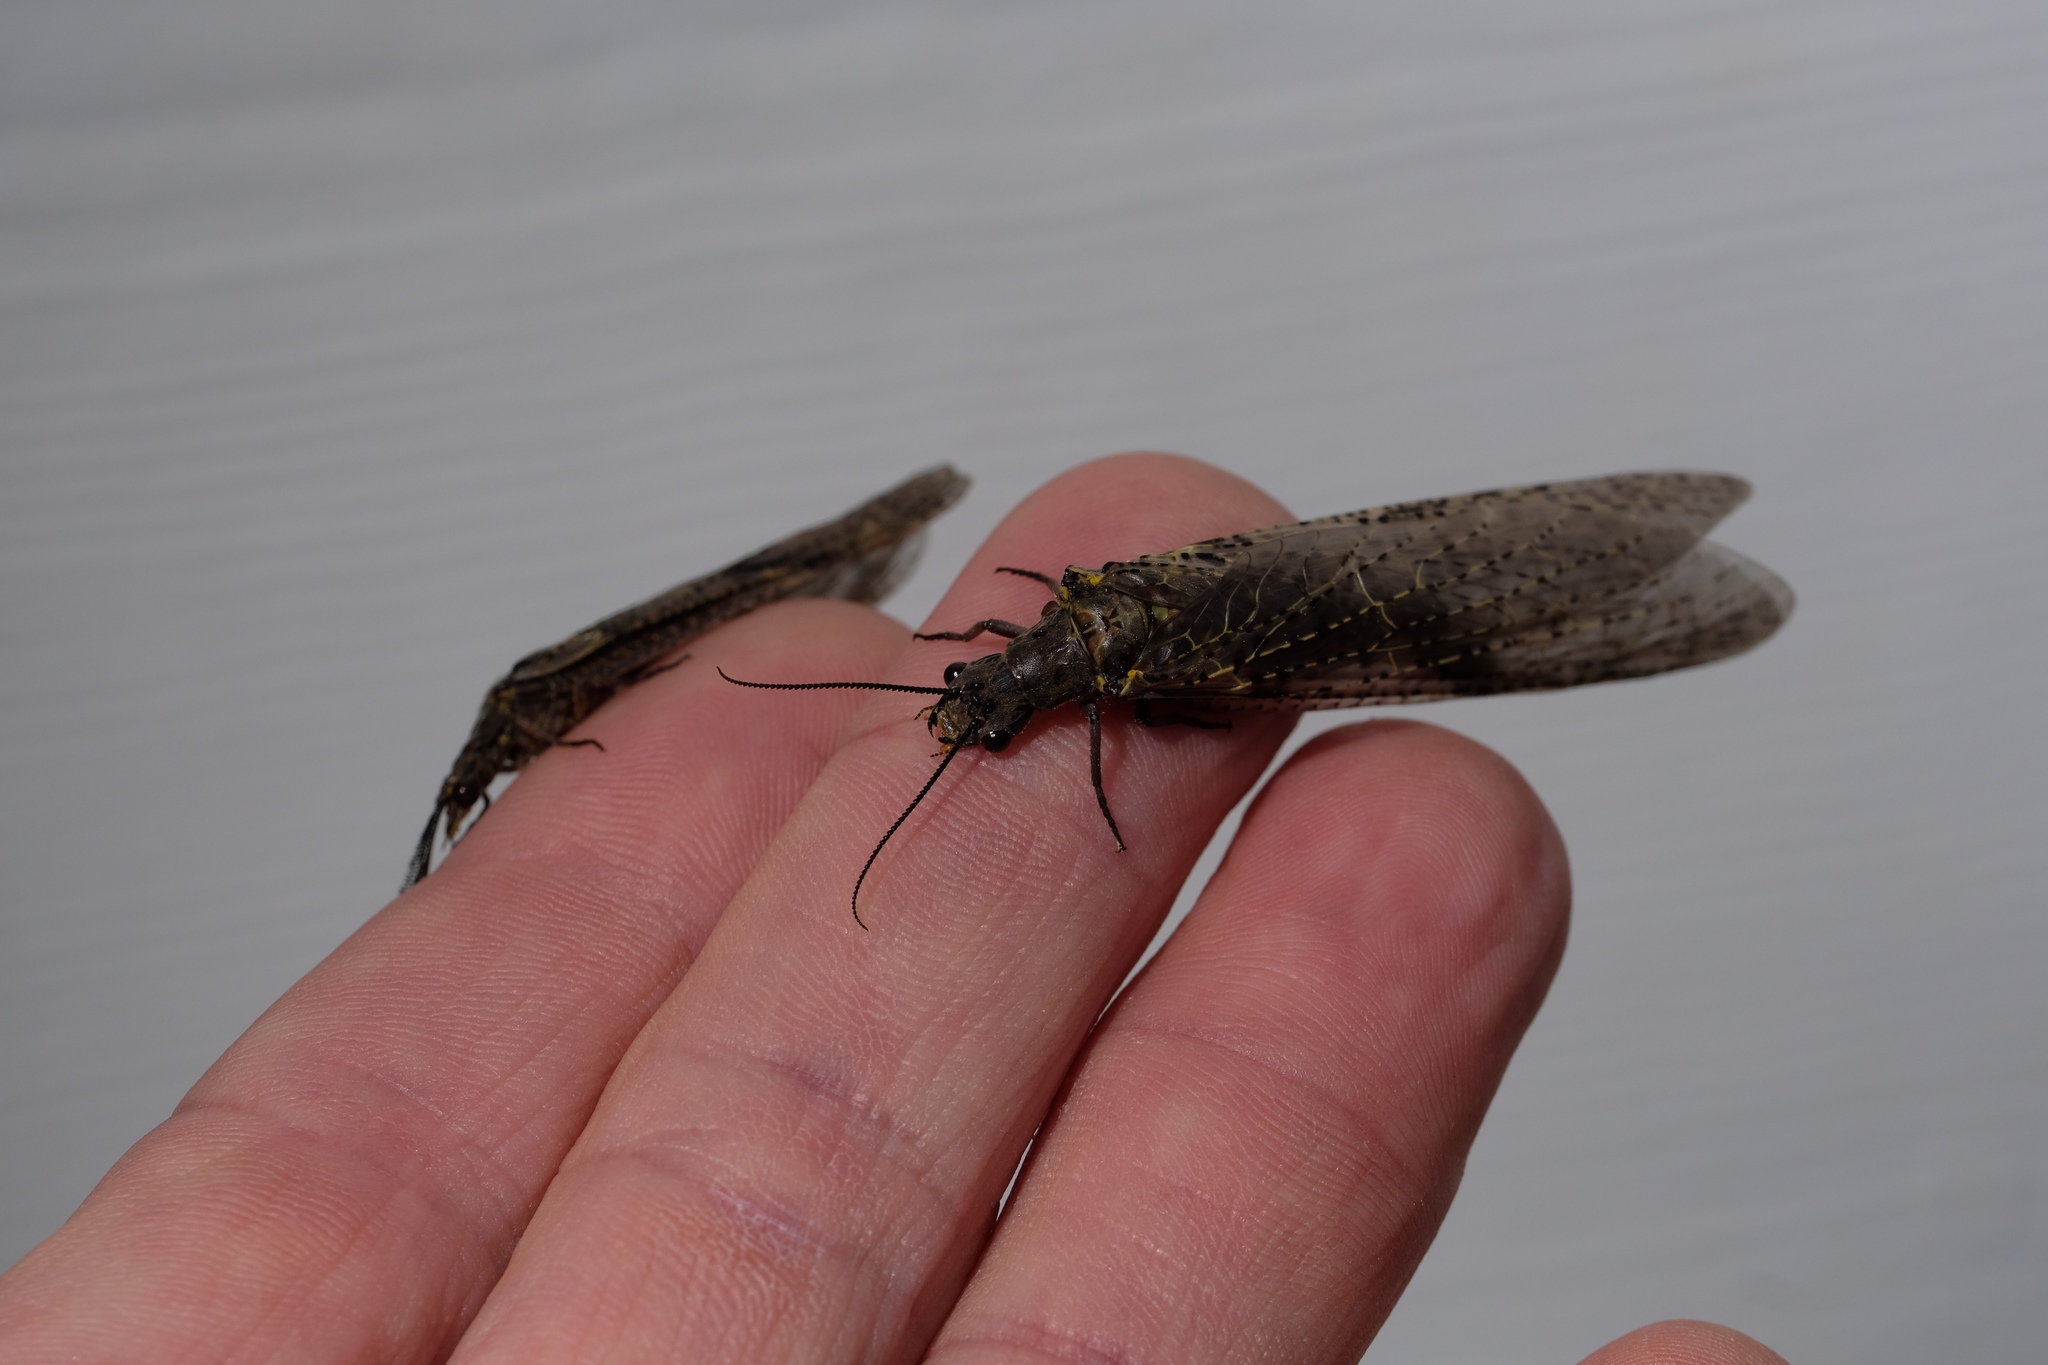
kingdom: Animalia
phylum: Arthropoda
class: Insecta
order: Megaloptera
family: Corydalidae
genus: Chauliodes
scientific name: Chauliodes rastricornis
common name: Spring fishfly
